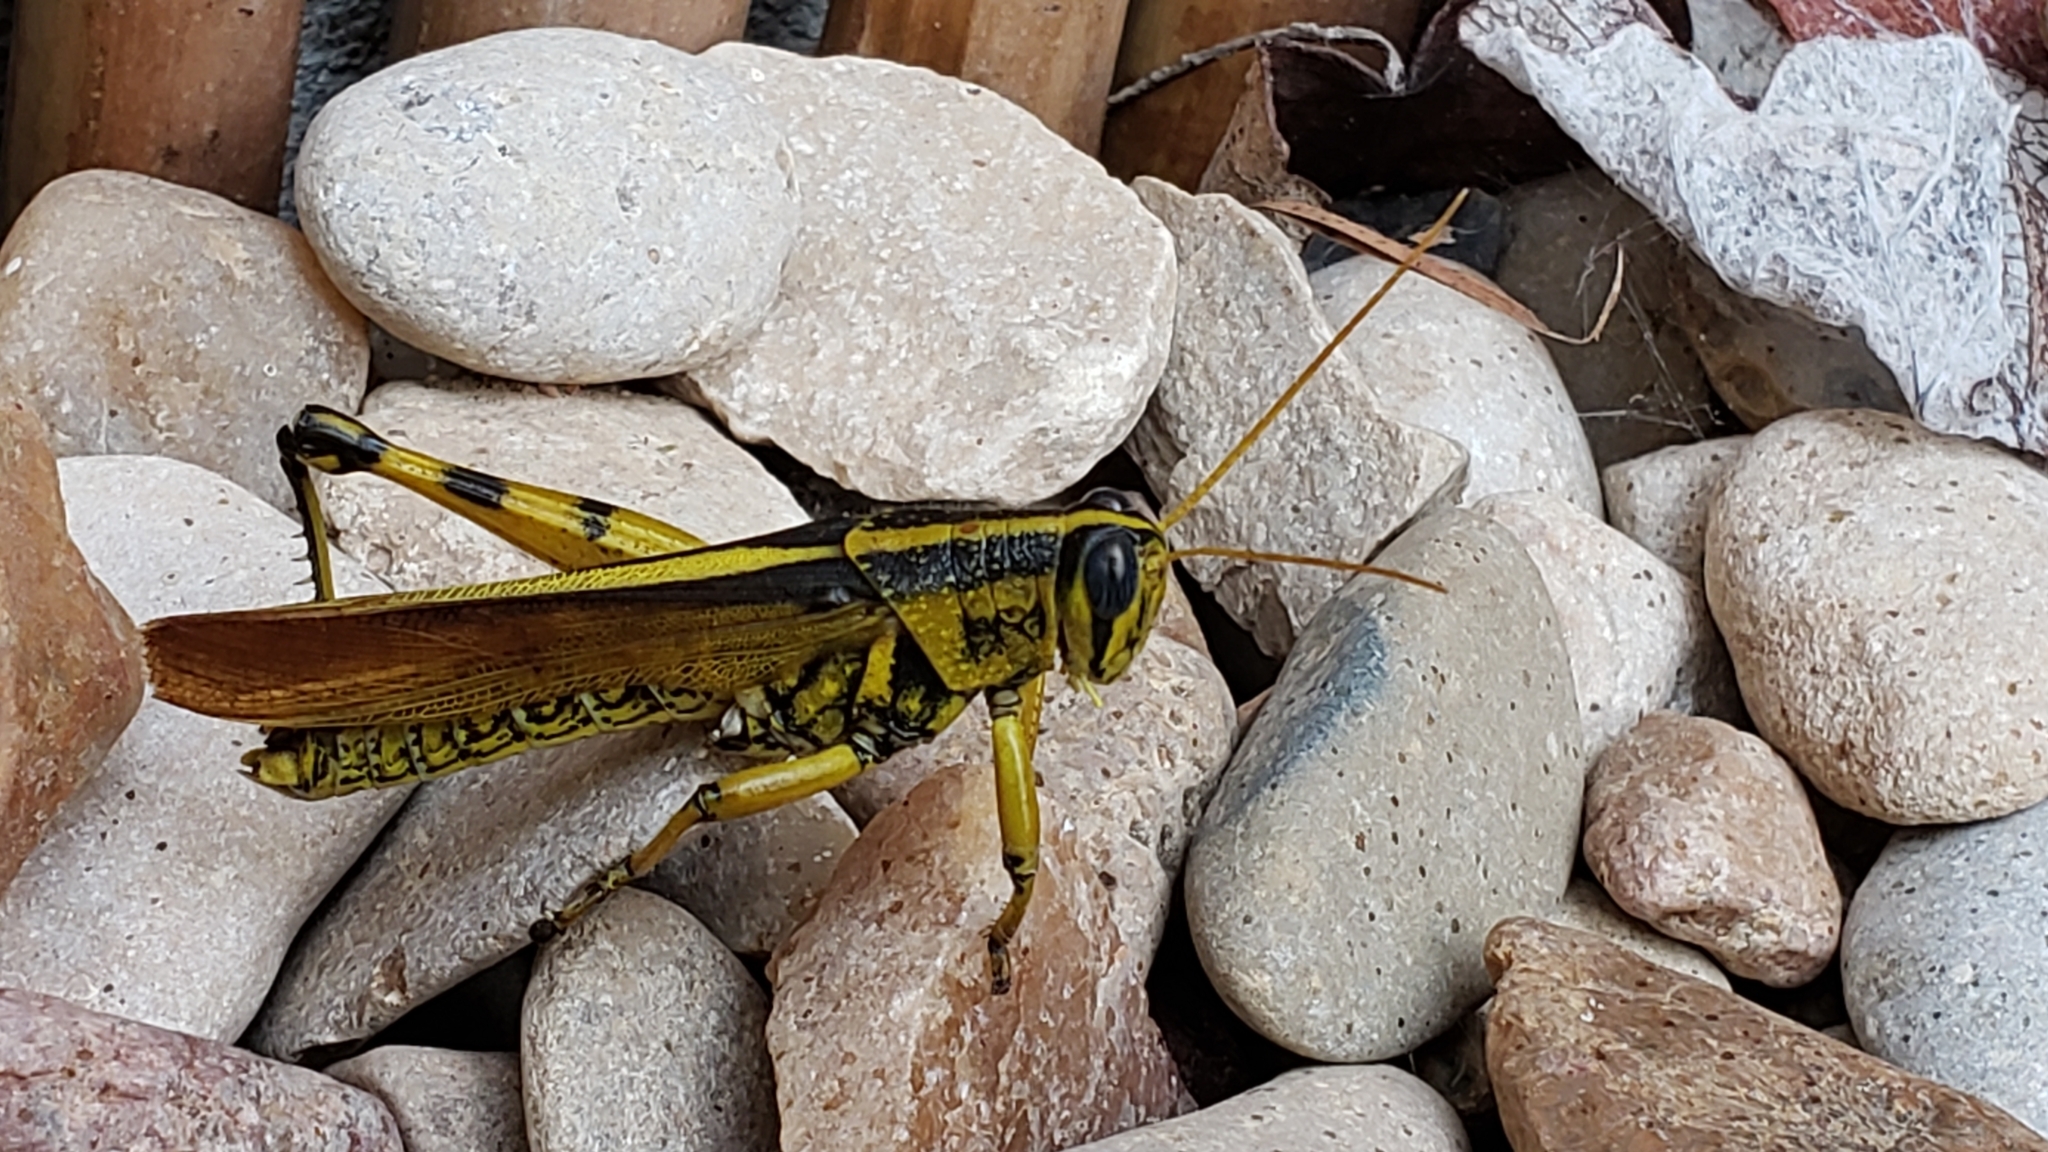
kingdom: Animalia
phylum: Arthropoda
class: Insecta
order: Orthoptera
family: Acrididae
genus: Schistocerca
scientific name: Schistocerca lineata
